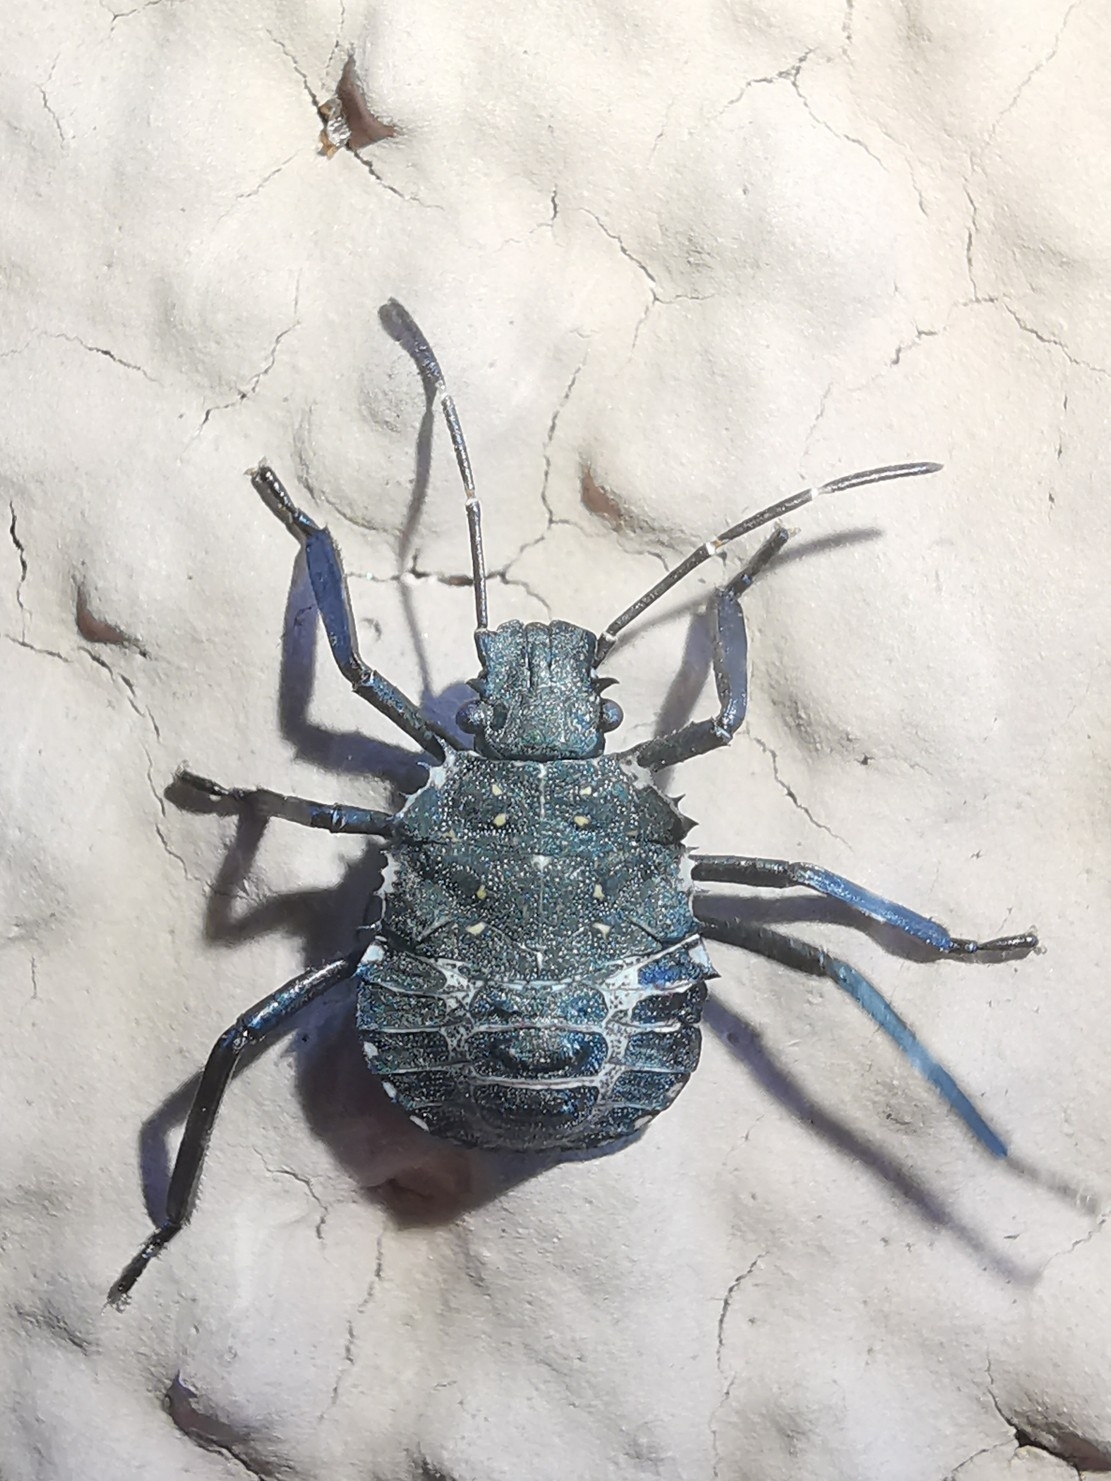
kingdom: Animalia
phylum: Arthropoda
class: Insecta
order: Hemiptera
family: Pentatomidae
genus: Halyomorpha
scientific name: Halyomorpha halys
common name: Brown marmorated stink bug
